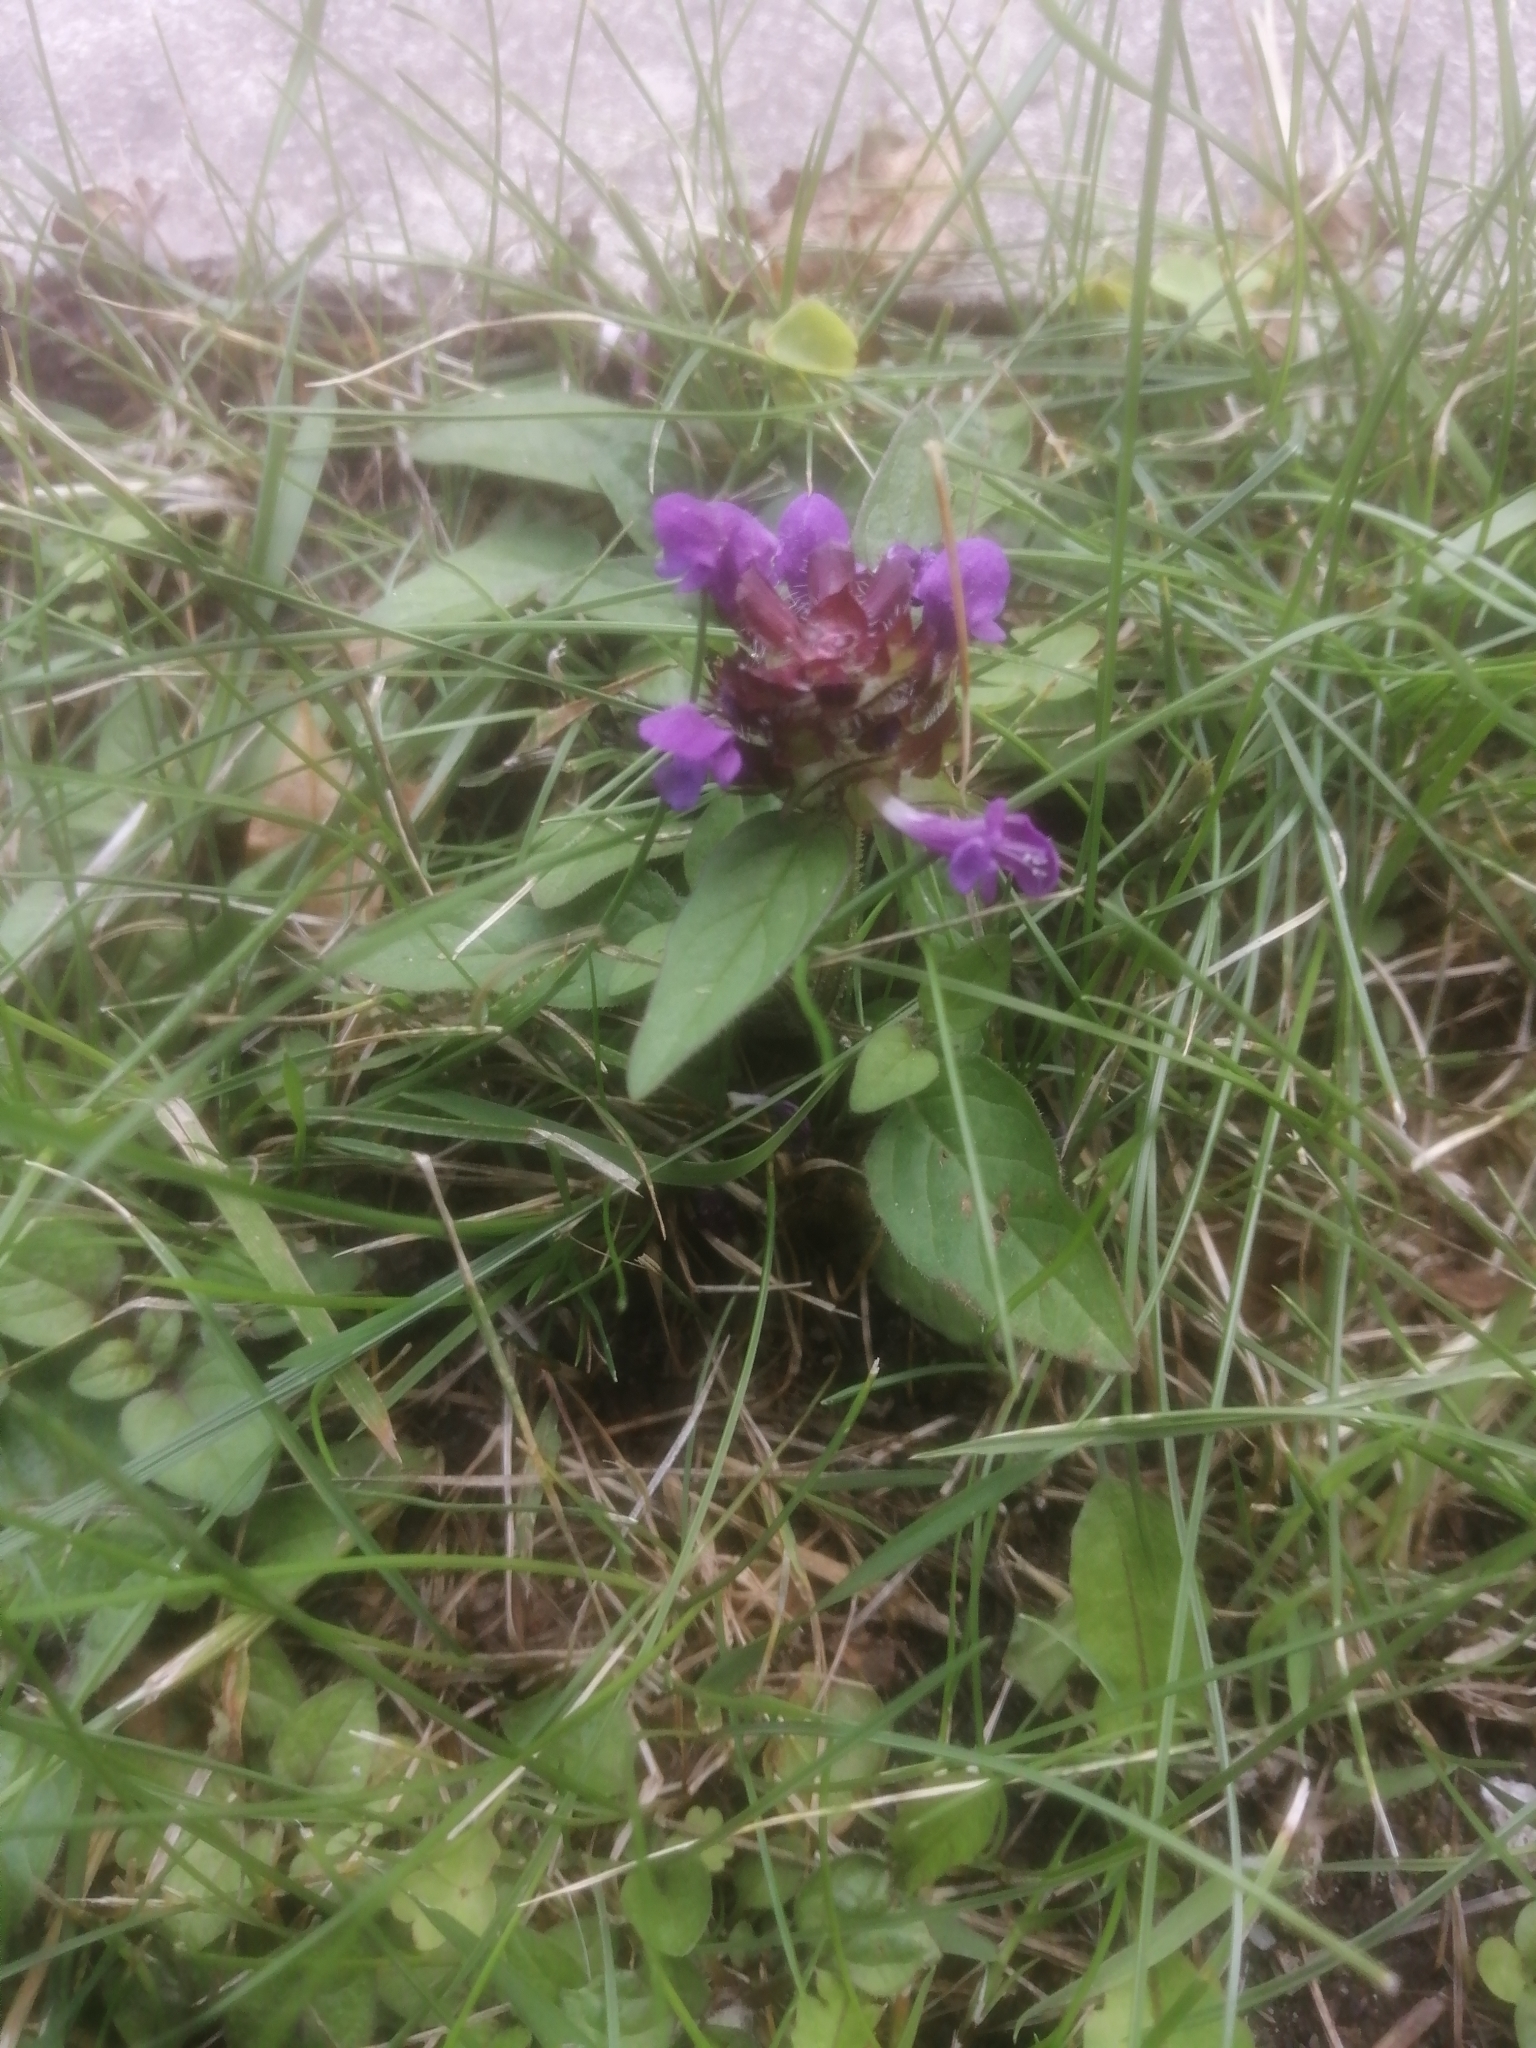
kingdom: Plantae
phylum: Tracheophyta
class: Magnoliopsida
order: Lamiales
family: Lamiaceae
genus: Prunella
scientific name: Prunella vulgaris
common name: Heal-all
